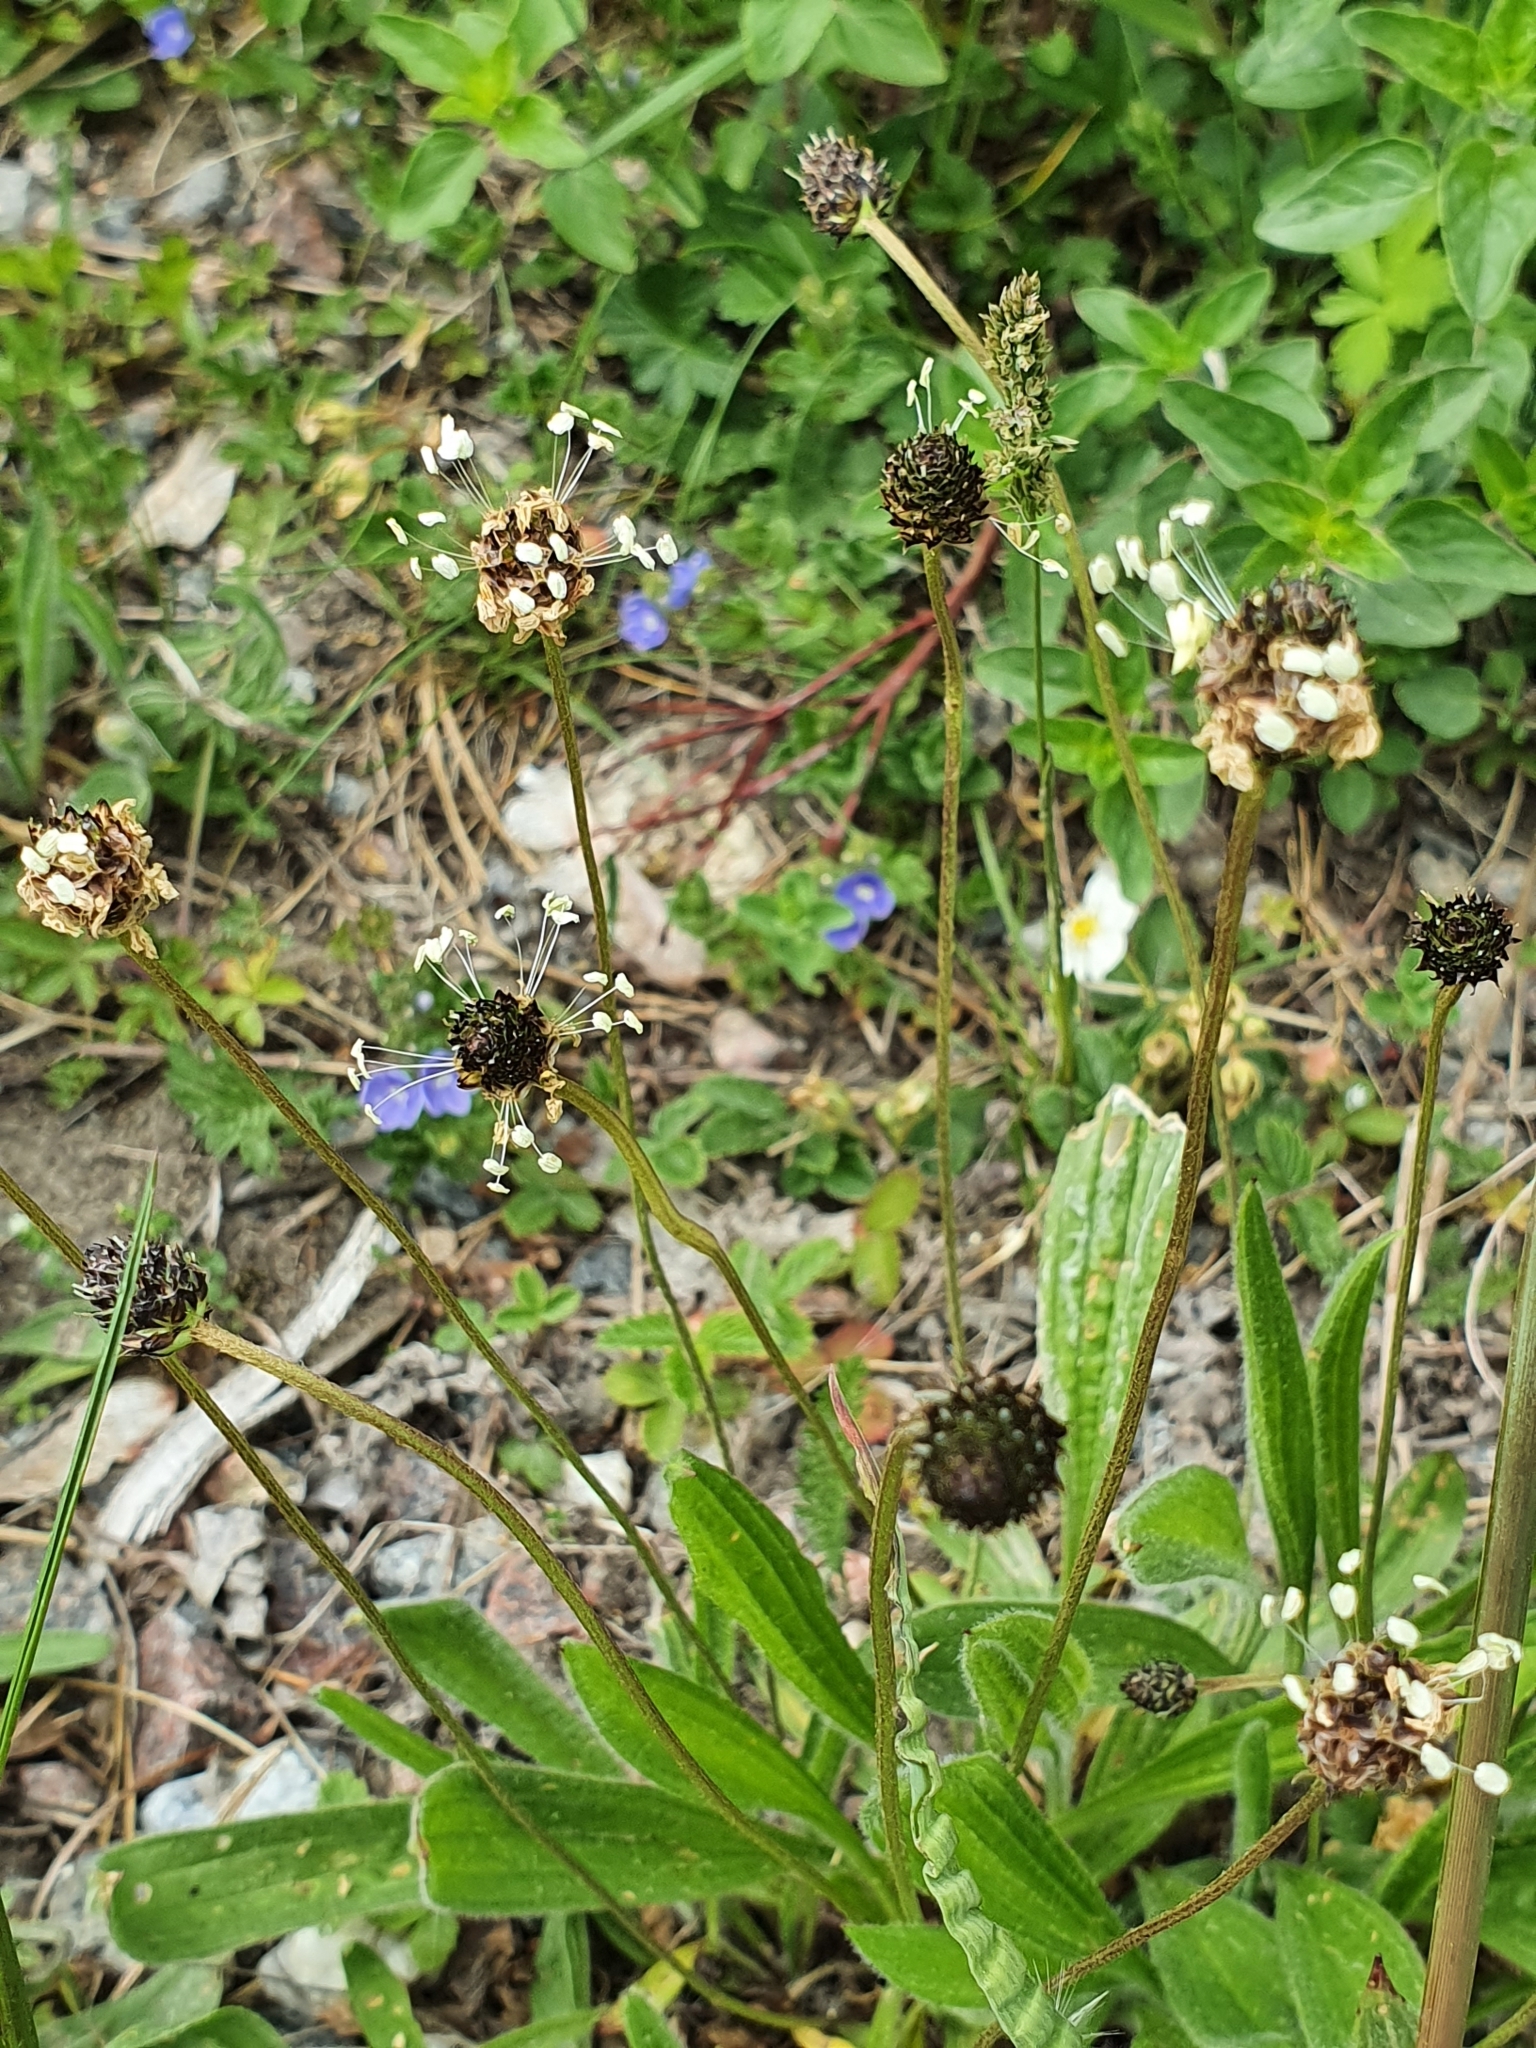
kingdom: Plantae
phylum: Tracheophyta
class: Magnoliopsida
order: Lamiales
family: Plantaginaceae
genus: Plantago
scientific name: Plantago lanceolata
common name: Ribwort plantain
